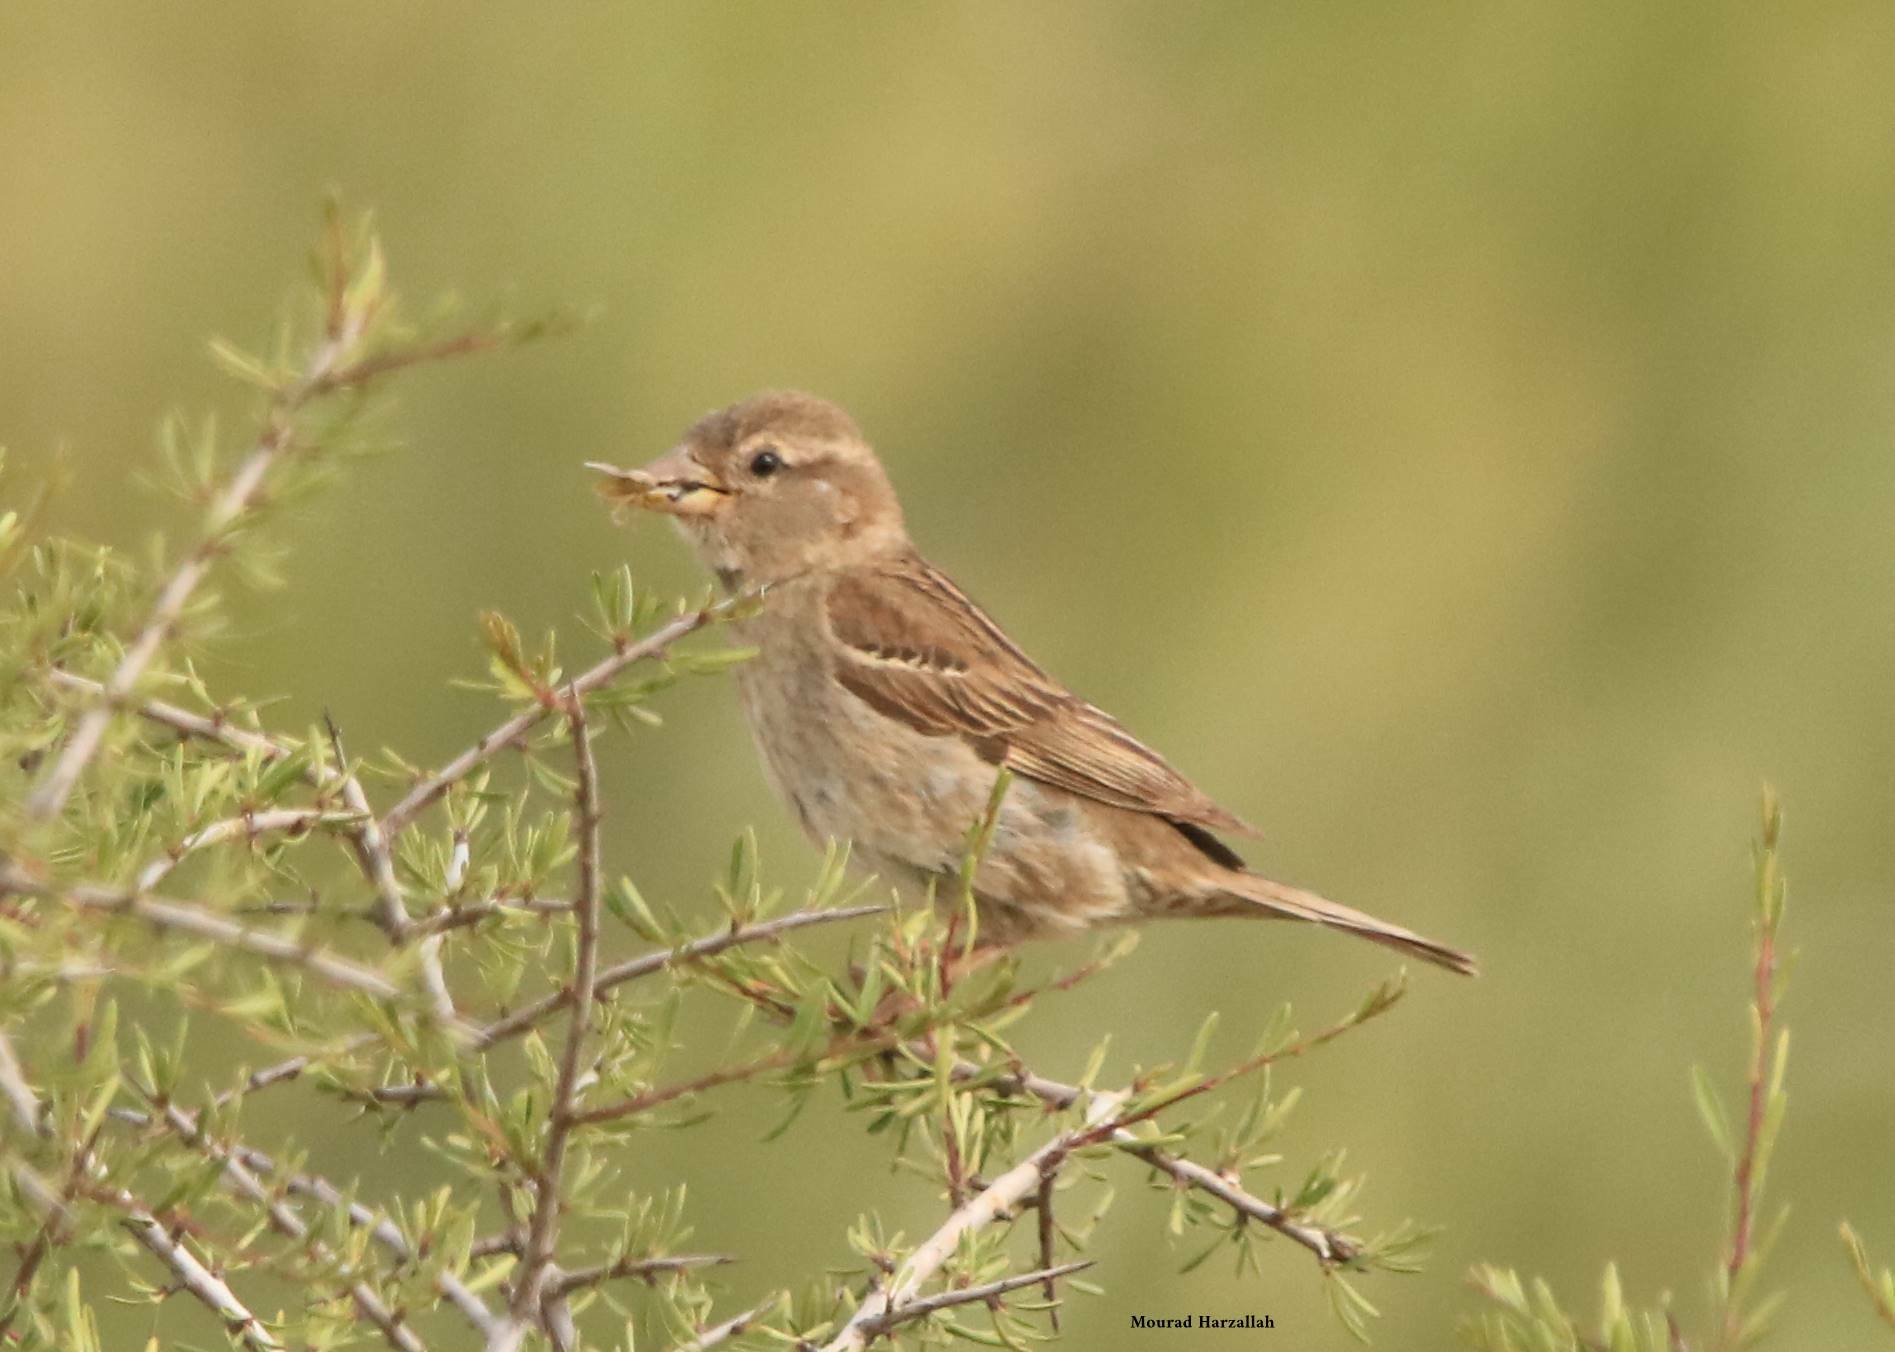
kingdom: Animalia
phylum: Chordata
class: Aves
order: Passeriformes
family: Passeridae
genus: Passer
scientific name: Passer hispaniolensis
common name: Spanish sparrow
